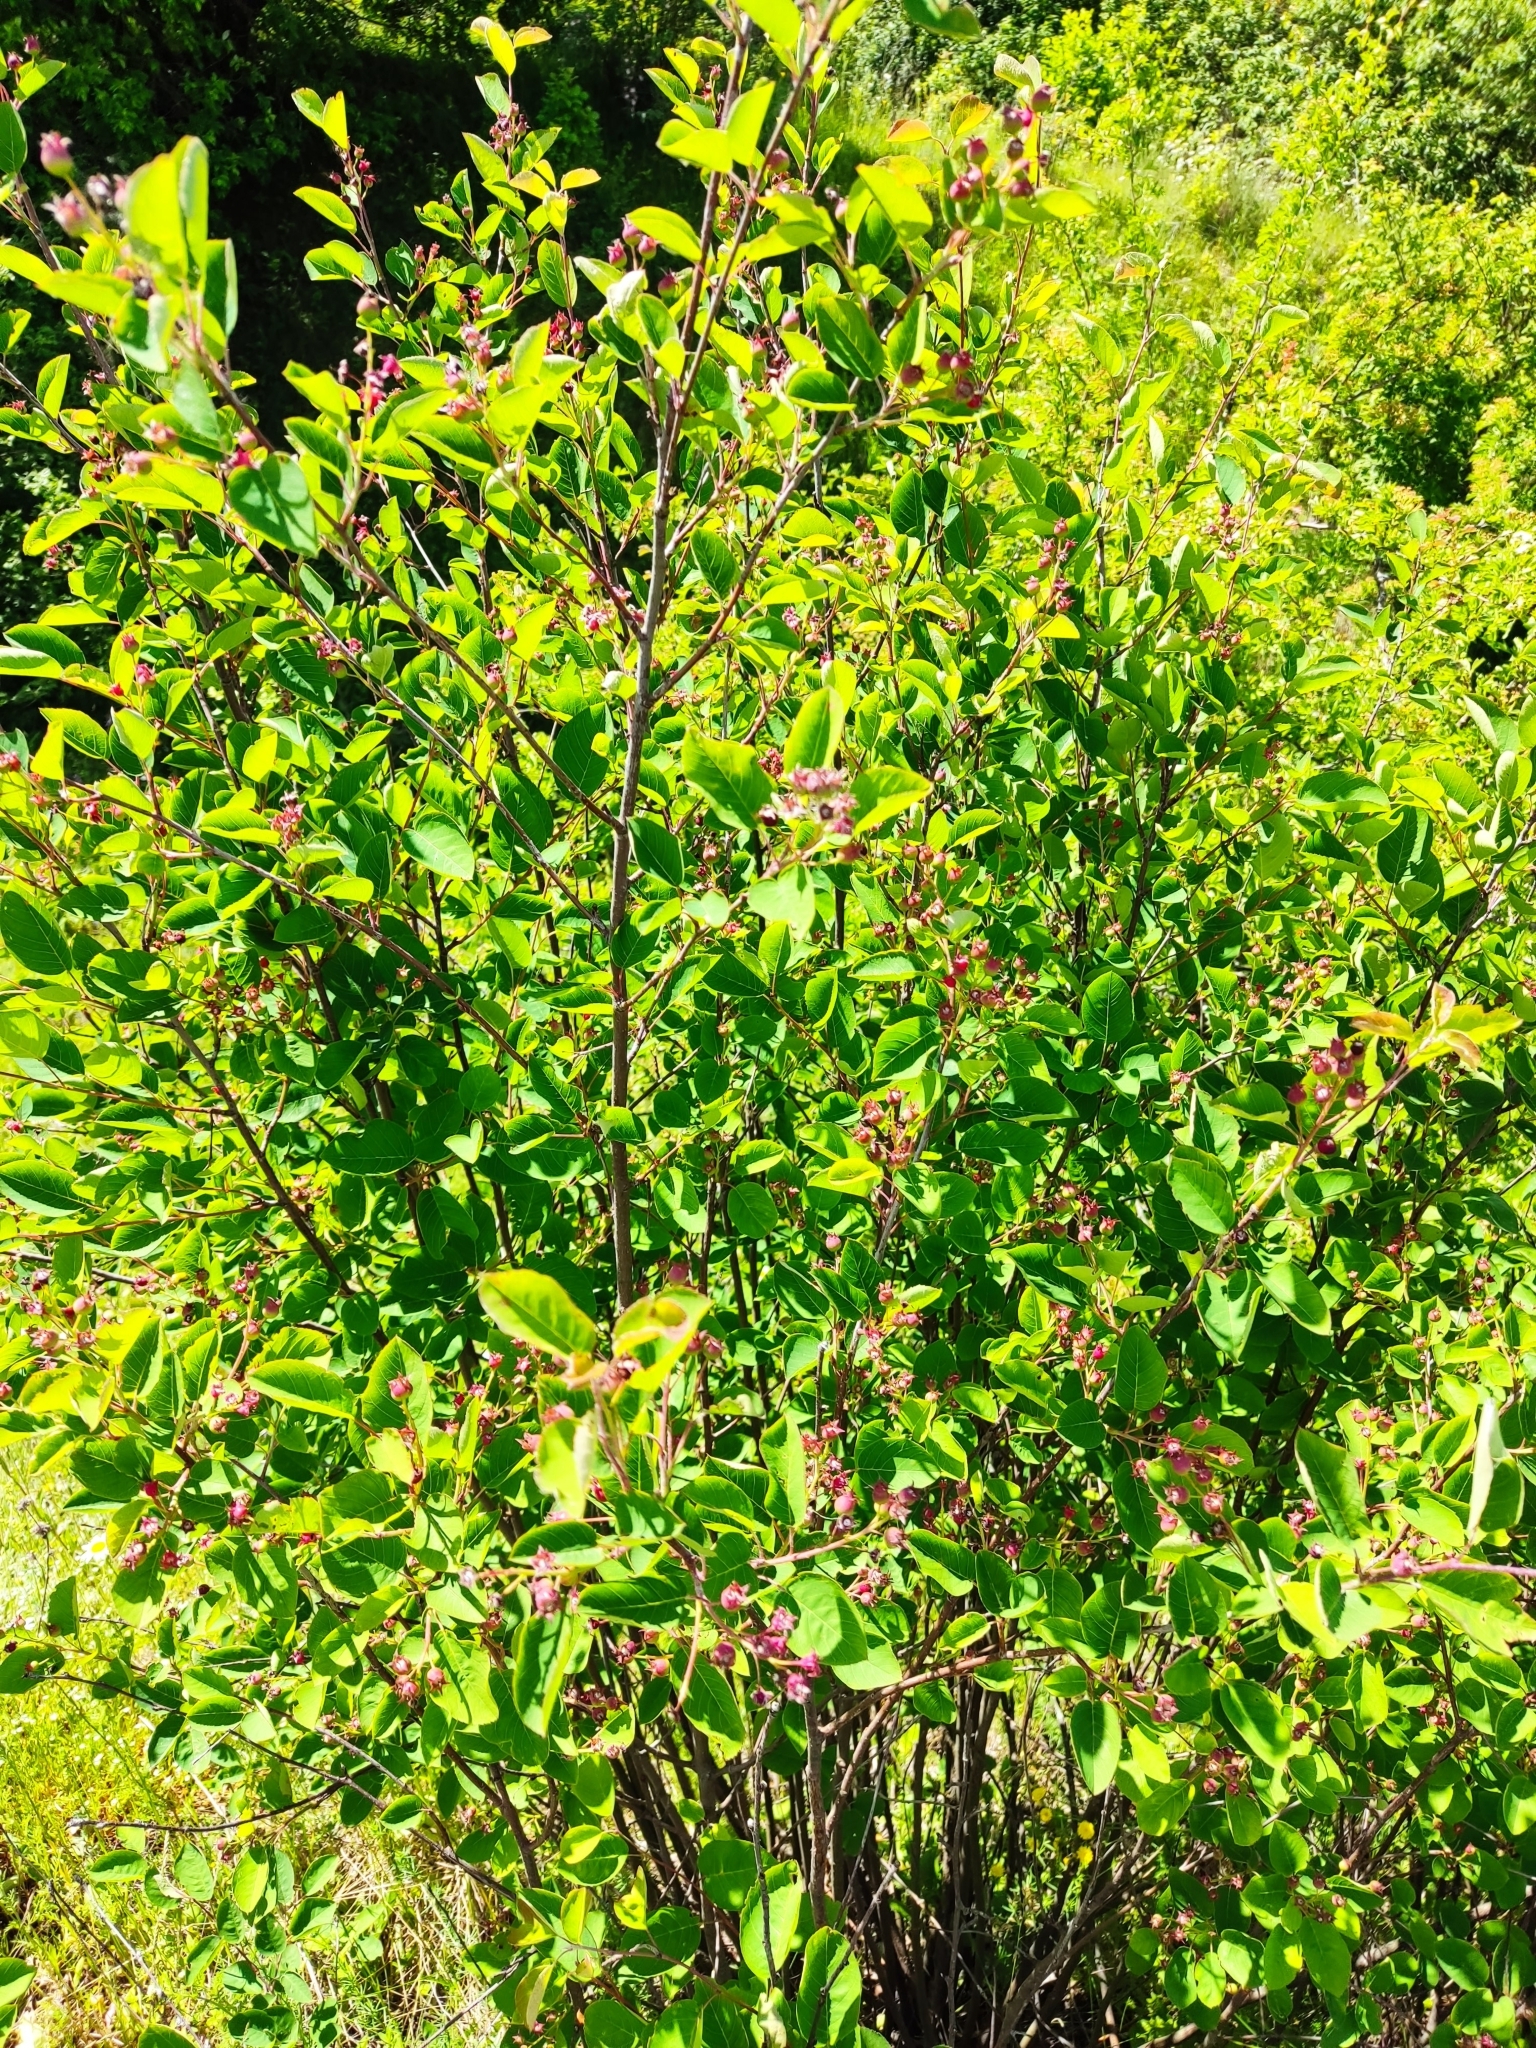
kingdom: Plantae
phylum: Tracheophyta
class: Magnoliopsida
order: Rosales
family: Rosaceae
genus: Amelanchier
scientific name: Amelanchier
